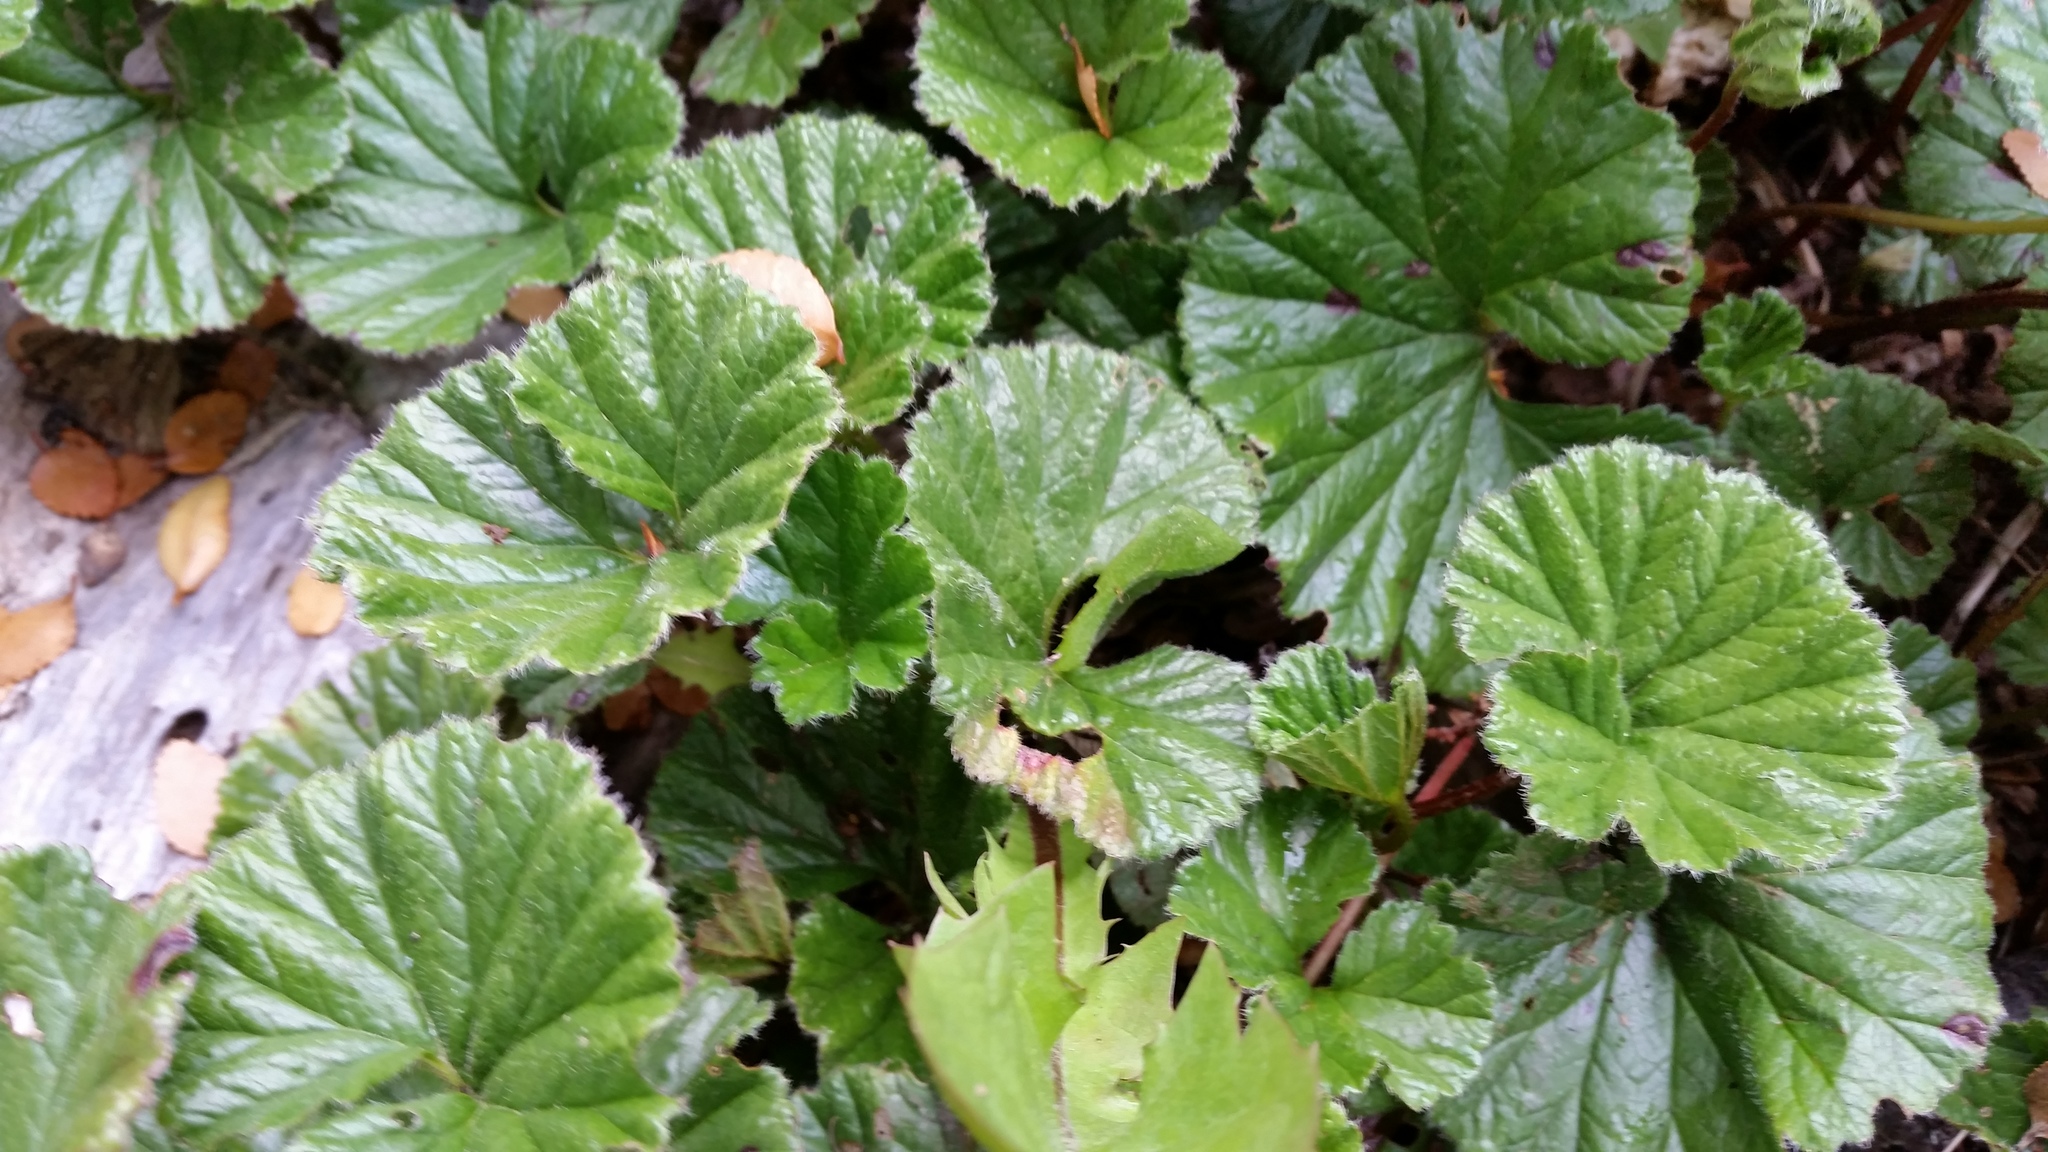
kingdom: Plantae
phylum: Tracheophyta
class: Magnoliopsida
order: Gunnerales
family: Gunneraceae
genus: Gunnera
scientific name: Gunnera magellanica
